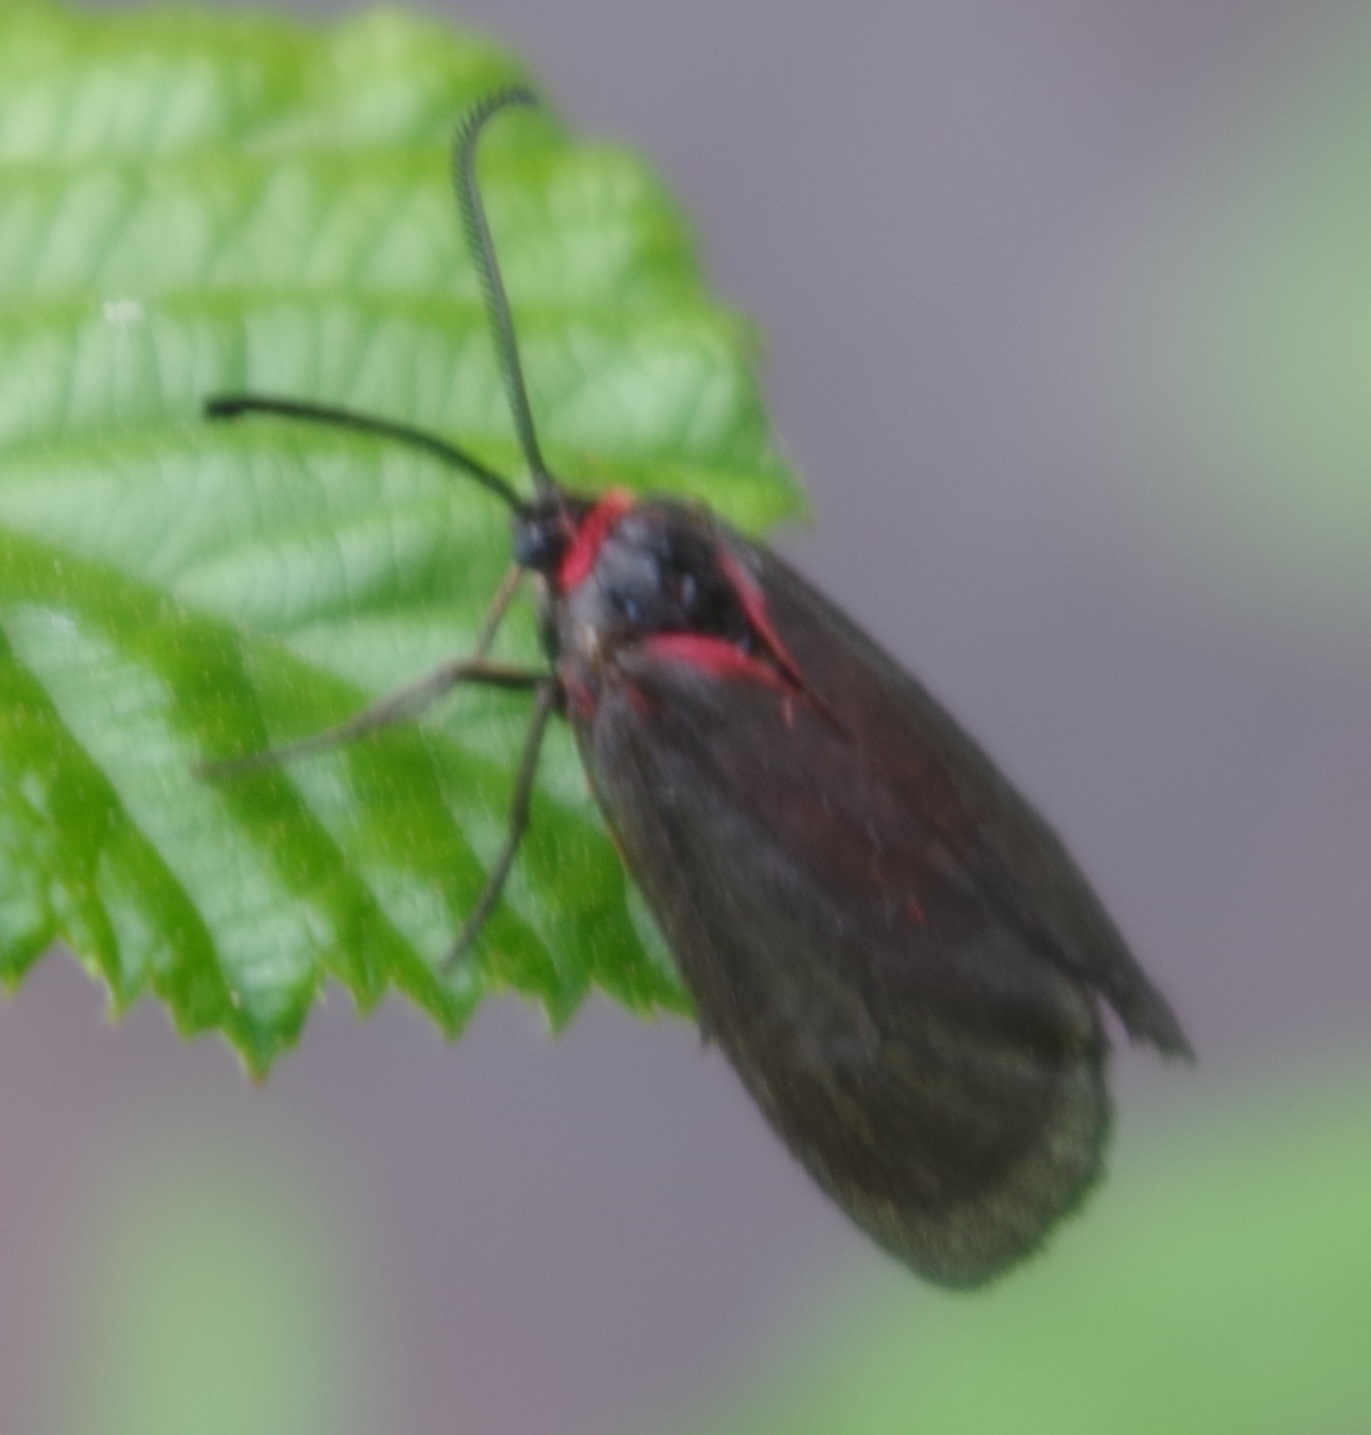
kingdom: Animalia
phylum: Arthropoda
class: Insecta
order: Lepidoptera
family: Zygaenidae
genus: Aglaope
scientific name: Aglaope infausta
